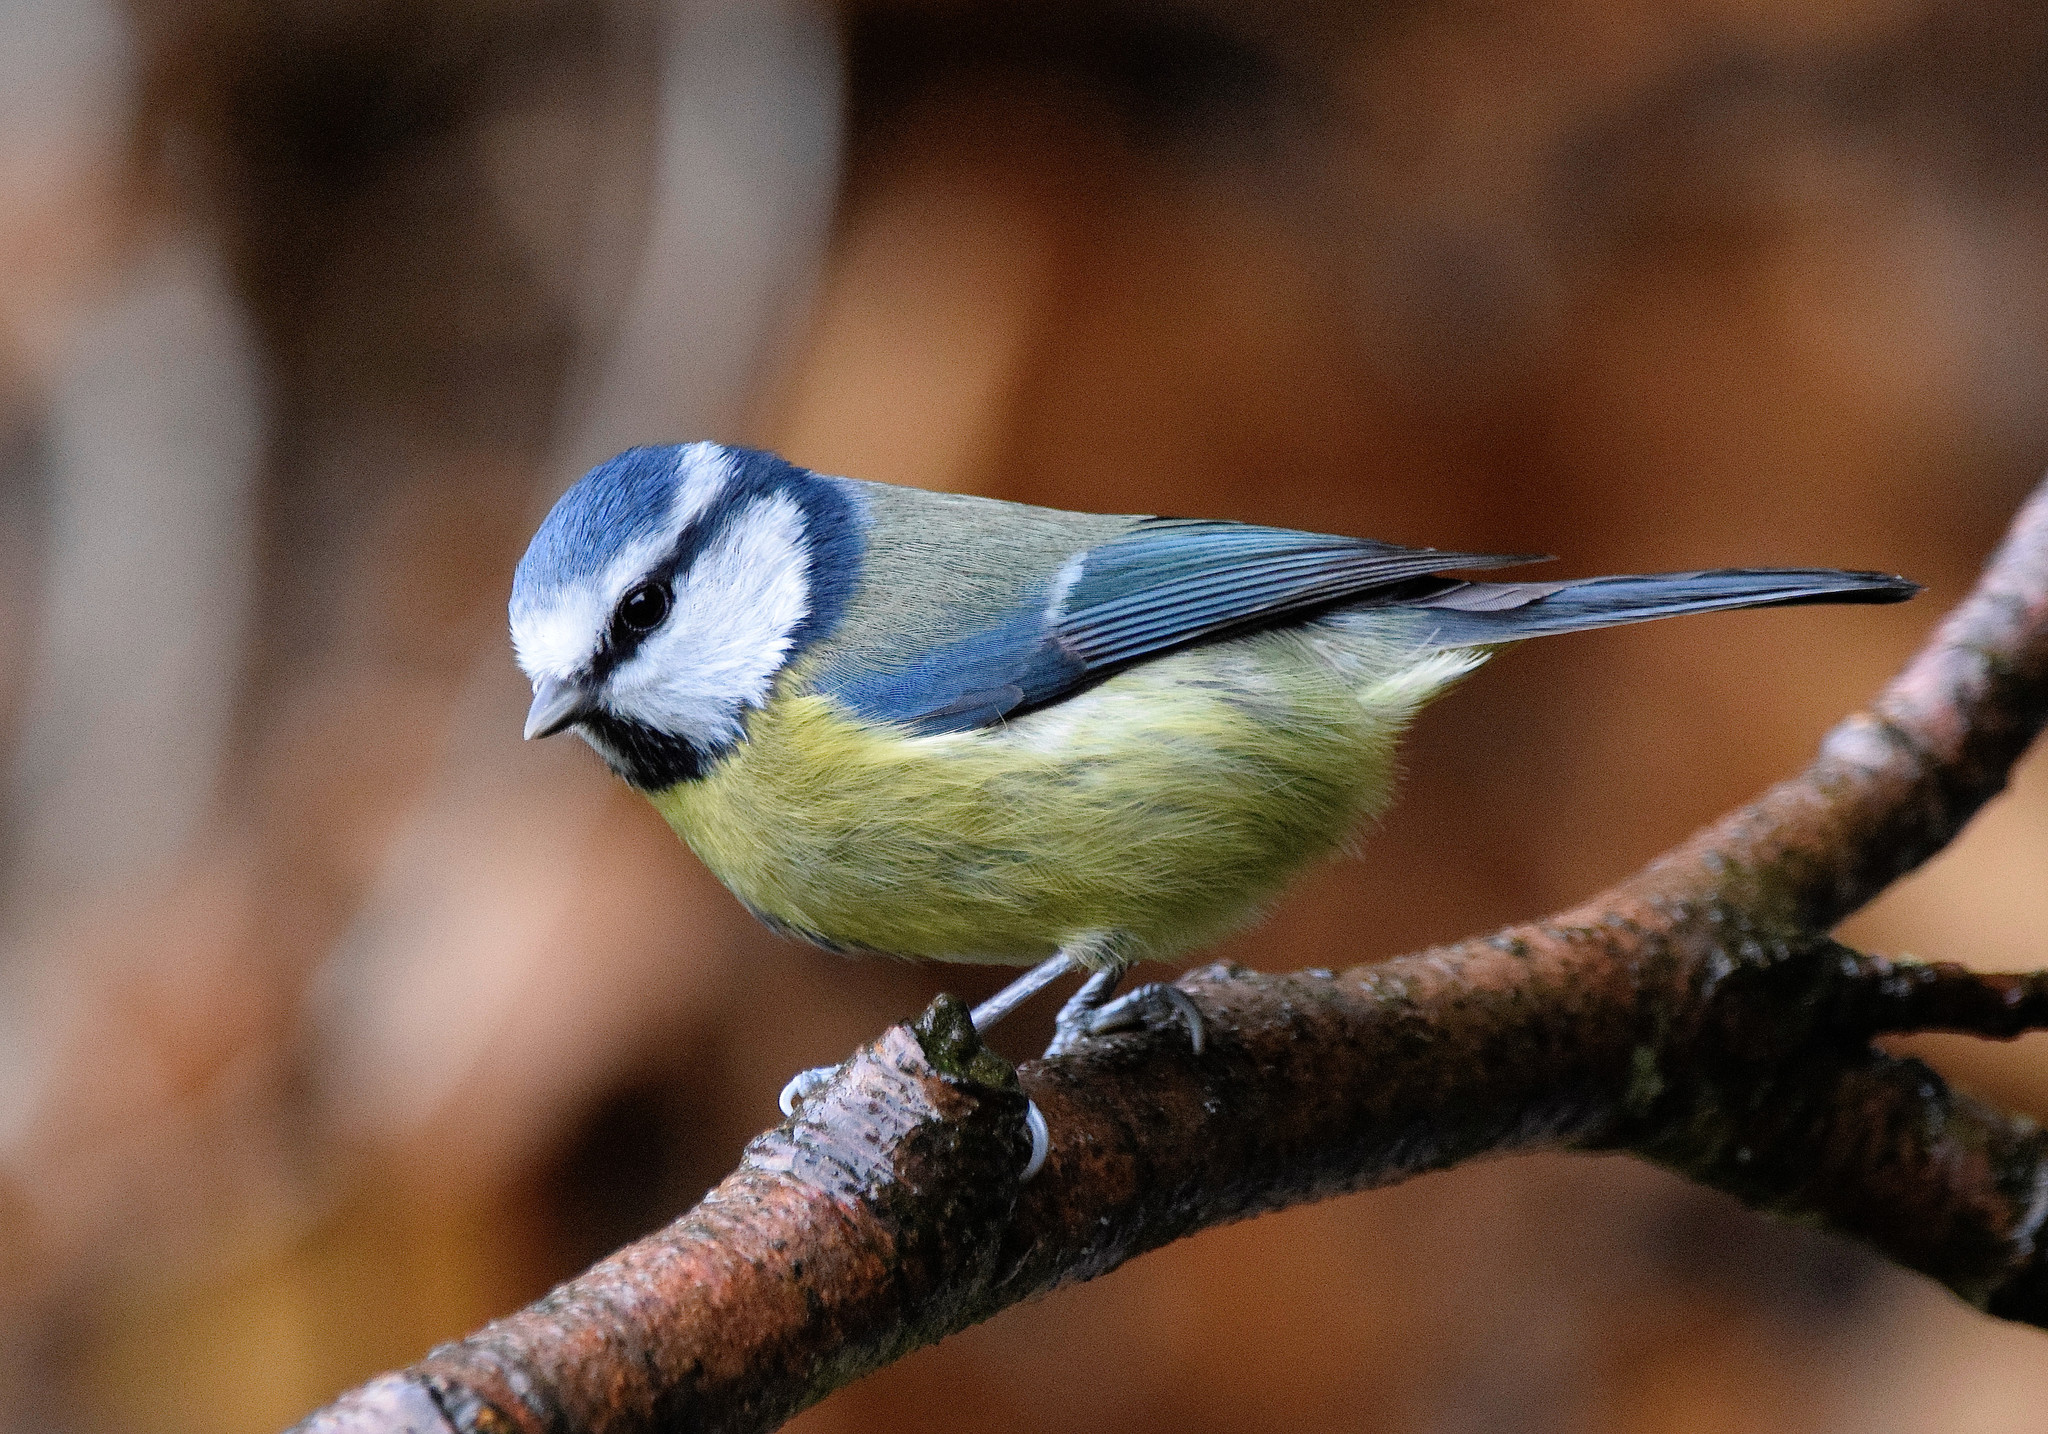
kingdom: Animalia
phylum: Chordata
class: Aves
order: Passeriformes
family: Paridae
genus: Cyanistes
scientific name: Cyanistes caeruleus
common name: Eurasian blue tit
